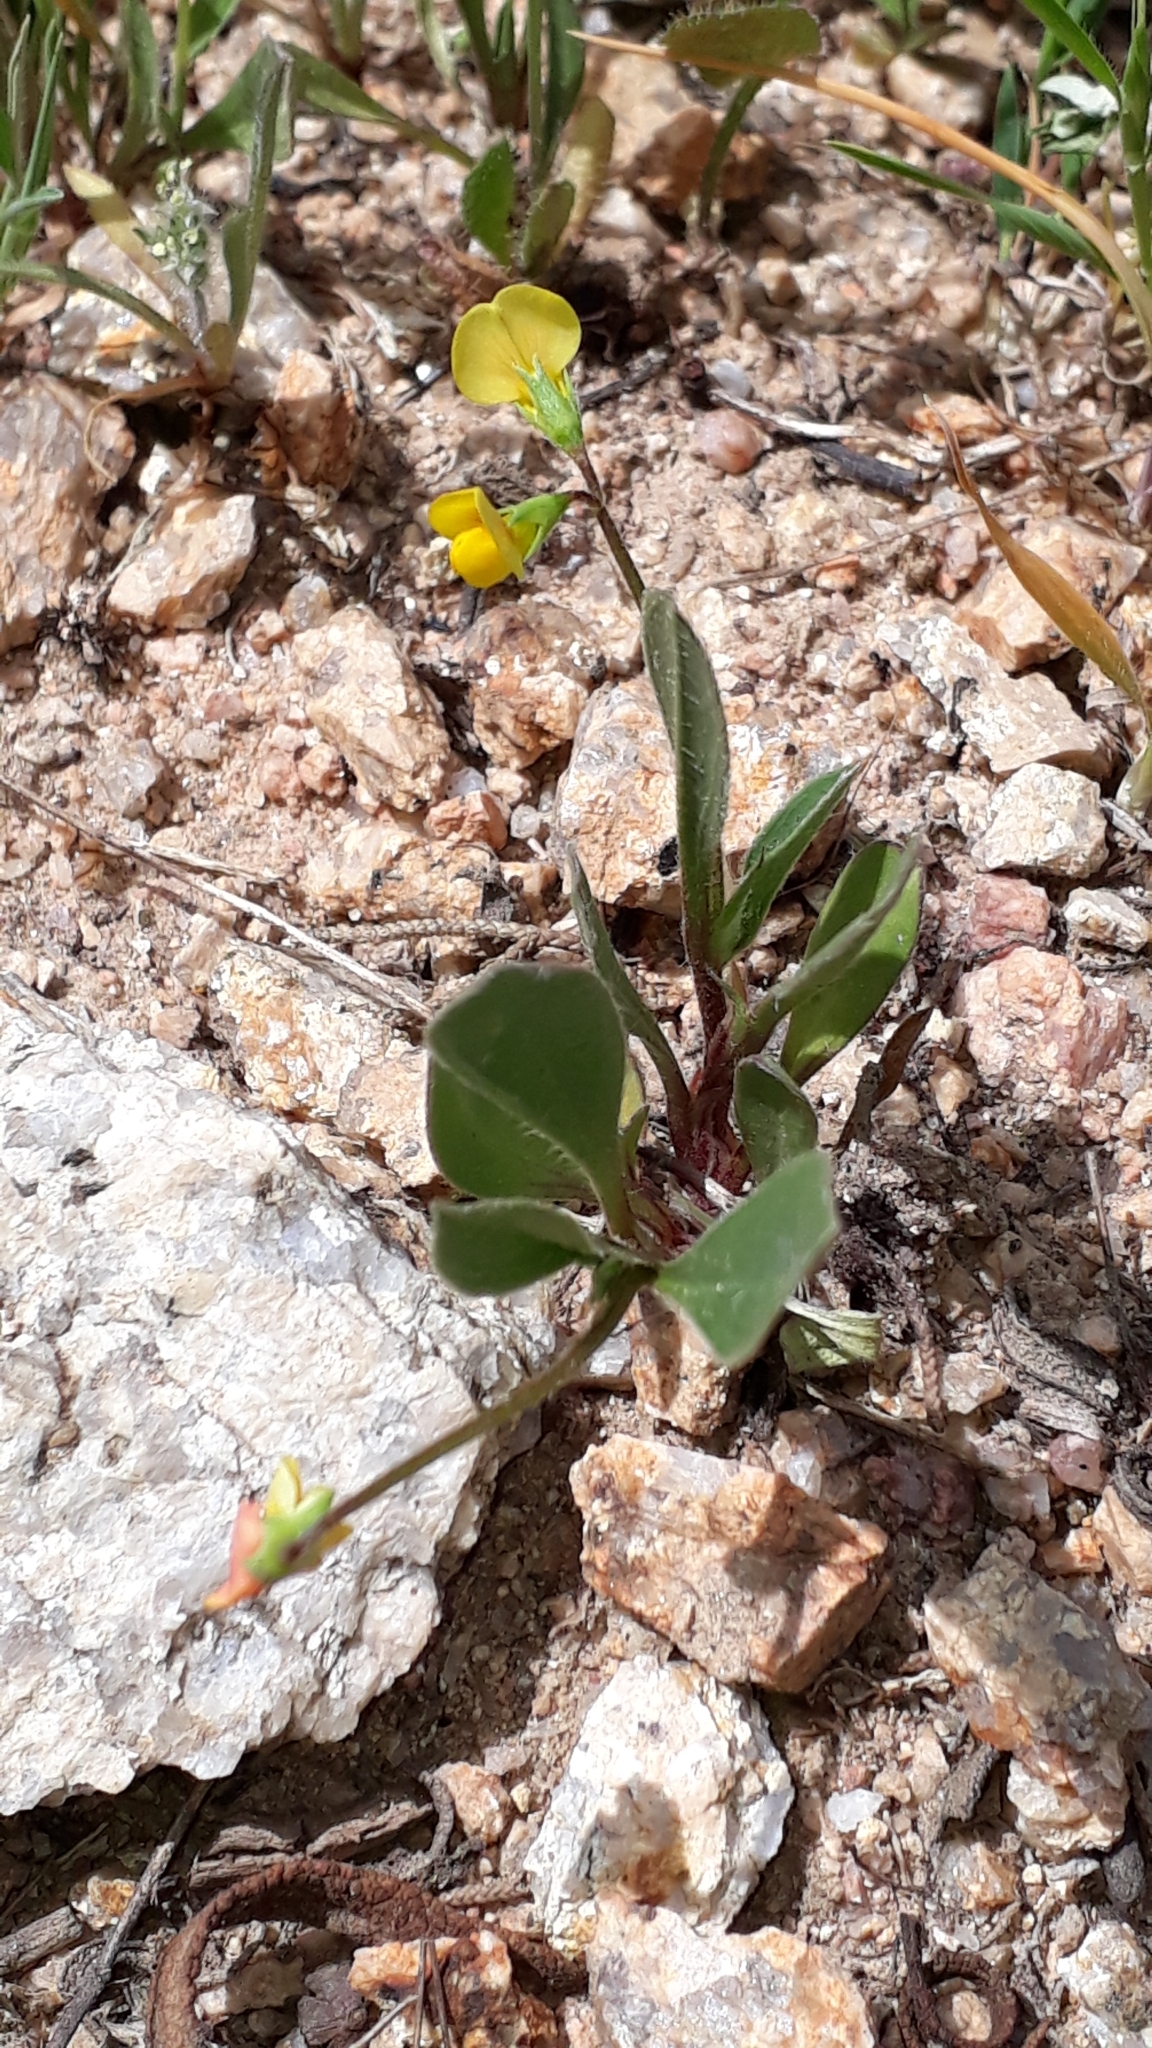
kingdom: Plantae
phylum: Tracheophyta
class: Magnoliopsida
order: Fabales
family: Fabaceae
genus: Scorpiurus
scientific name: Scorpiurus muricatus
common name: Caterpillar-plant
